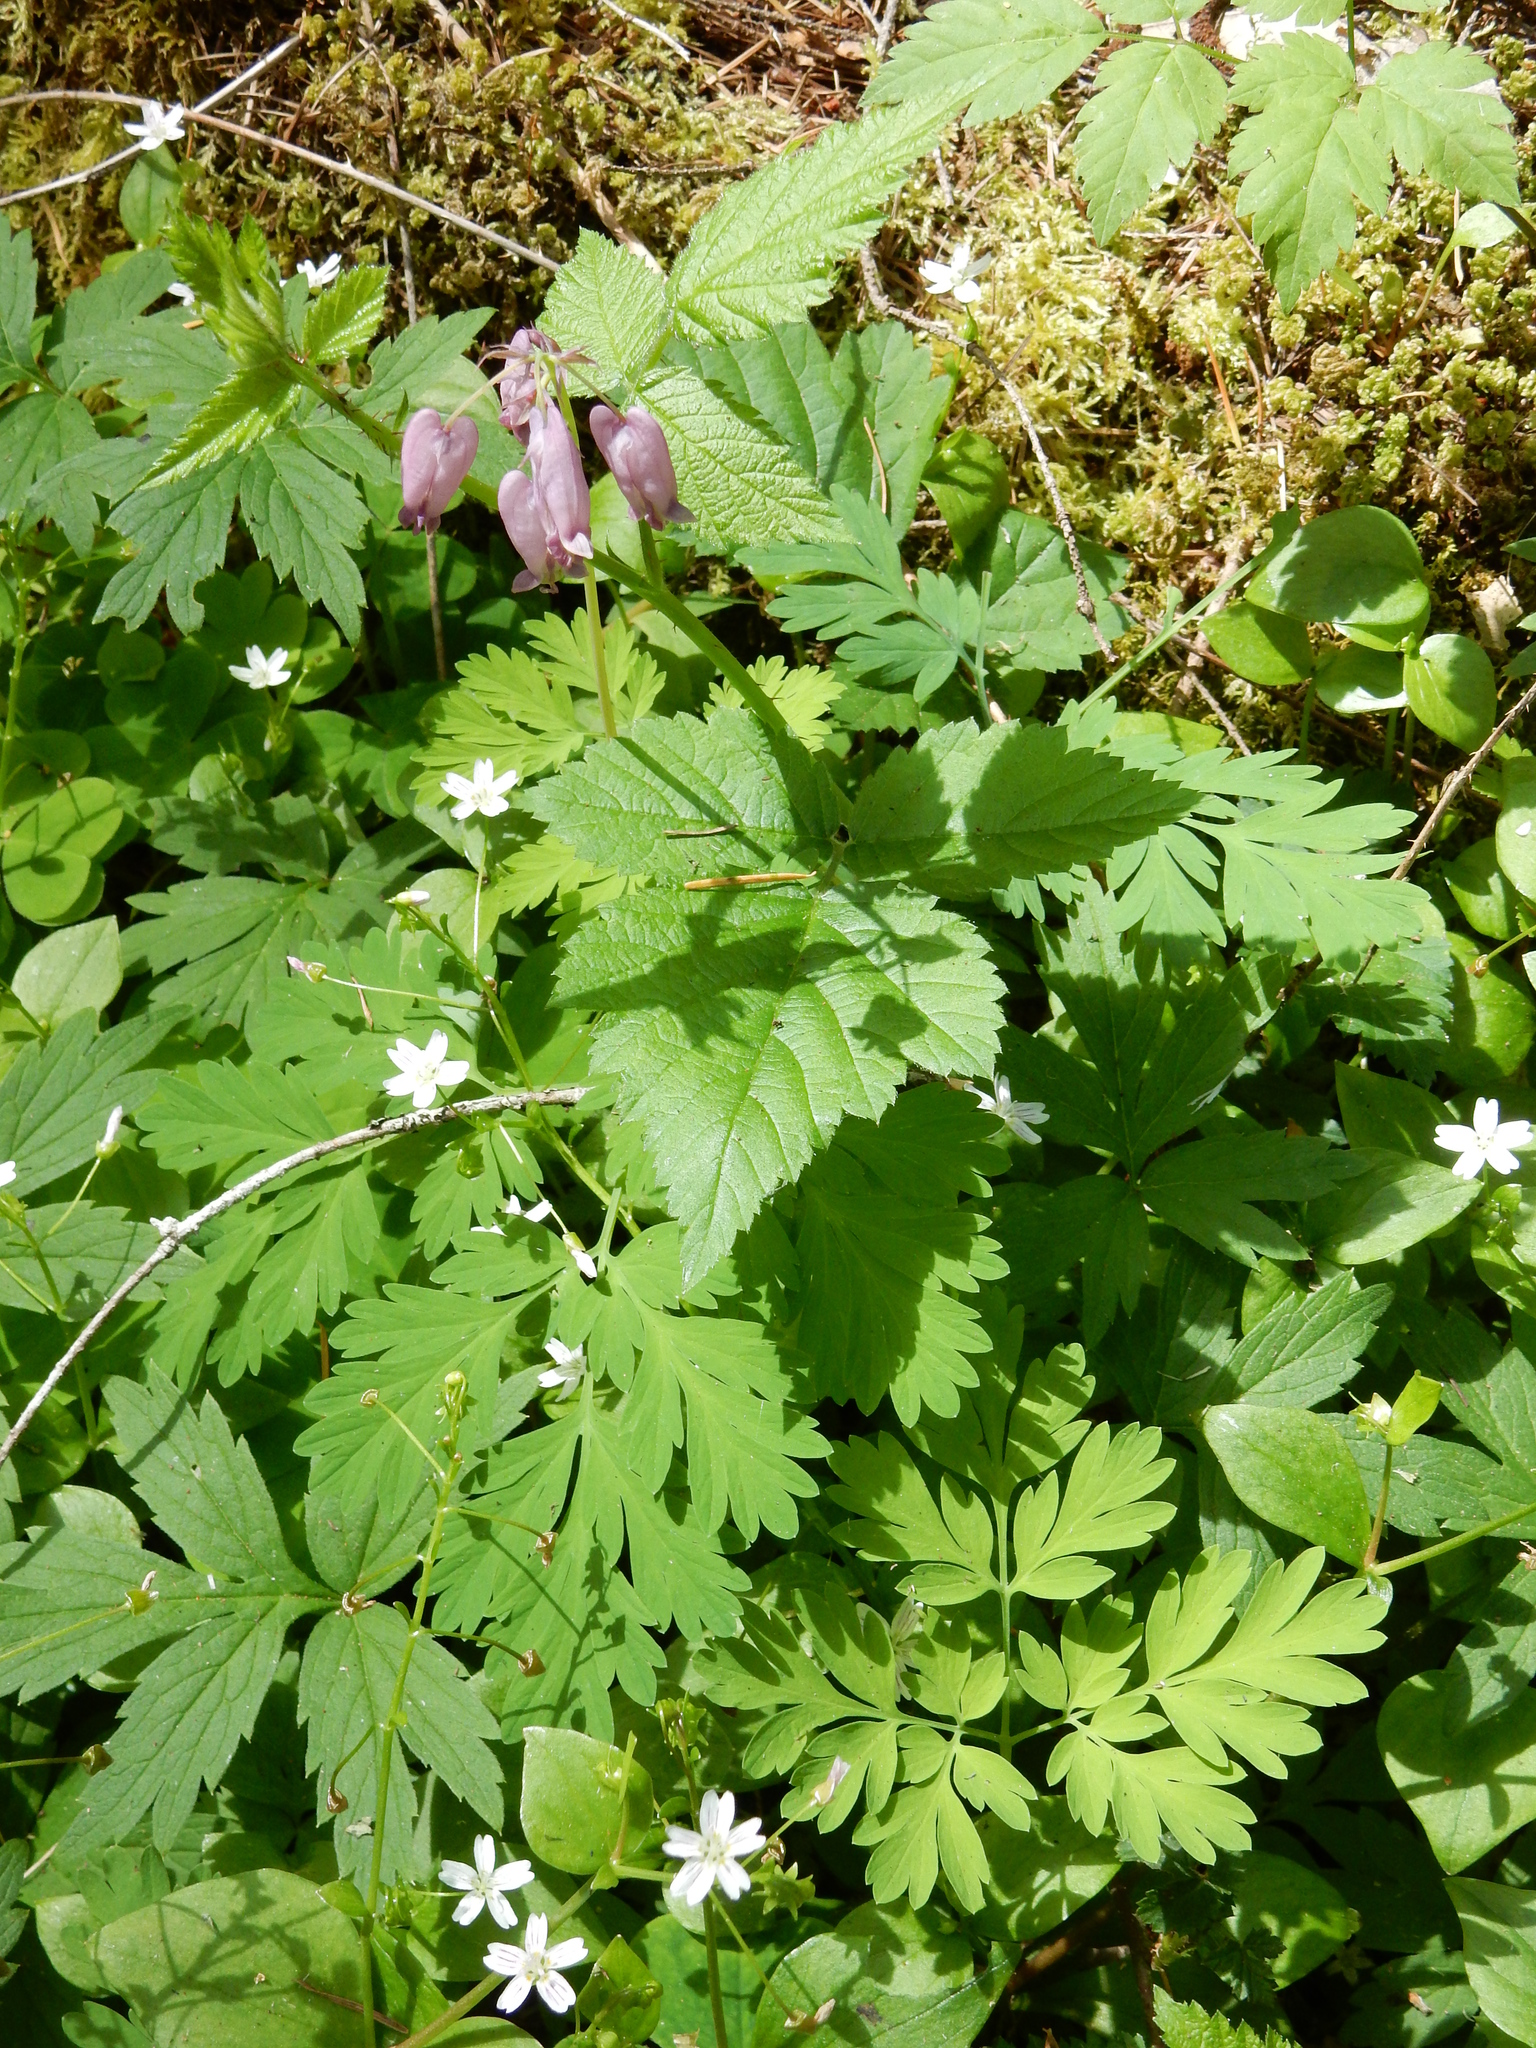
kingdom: Plantae
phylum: Tracheophyta
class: Magnoliopsida
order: Ranunculales
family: Papaveraceae
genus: Dicentra
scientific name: Dicentra formosa
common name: Bleeding-heart
